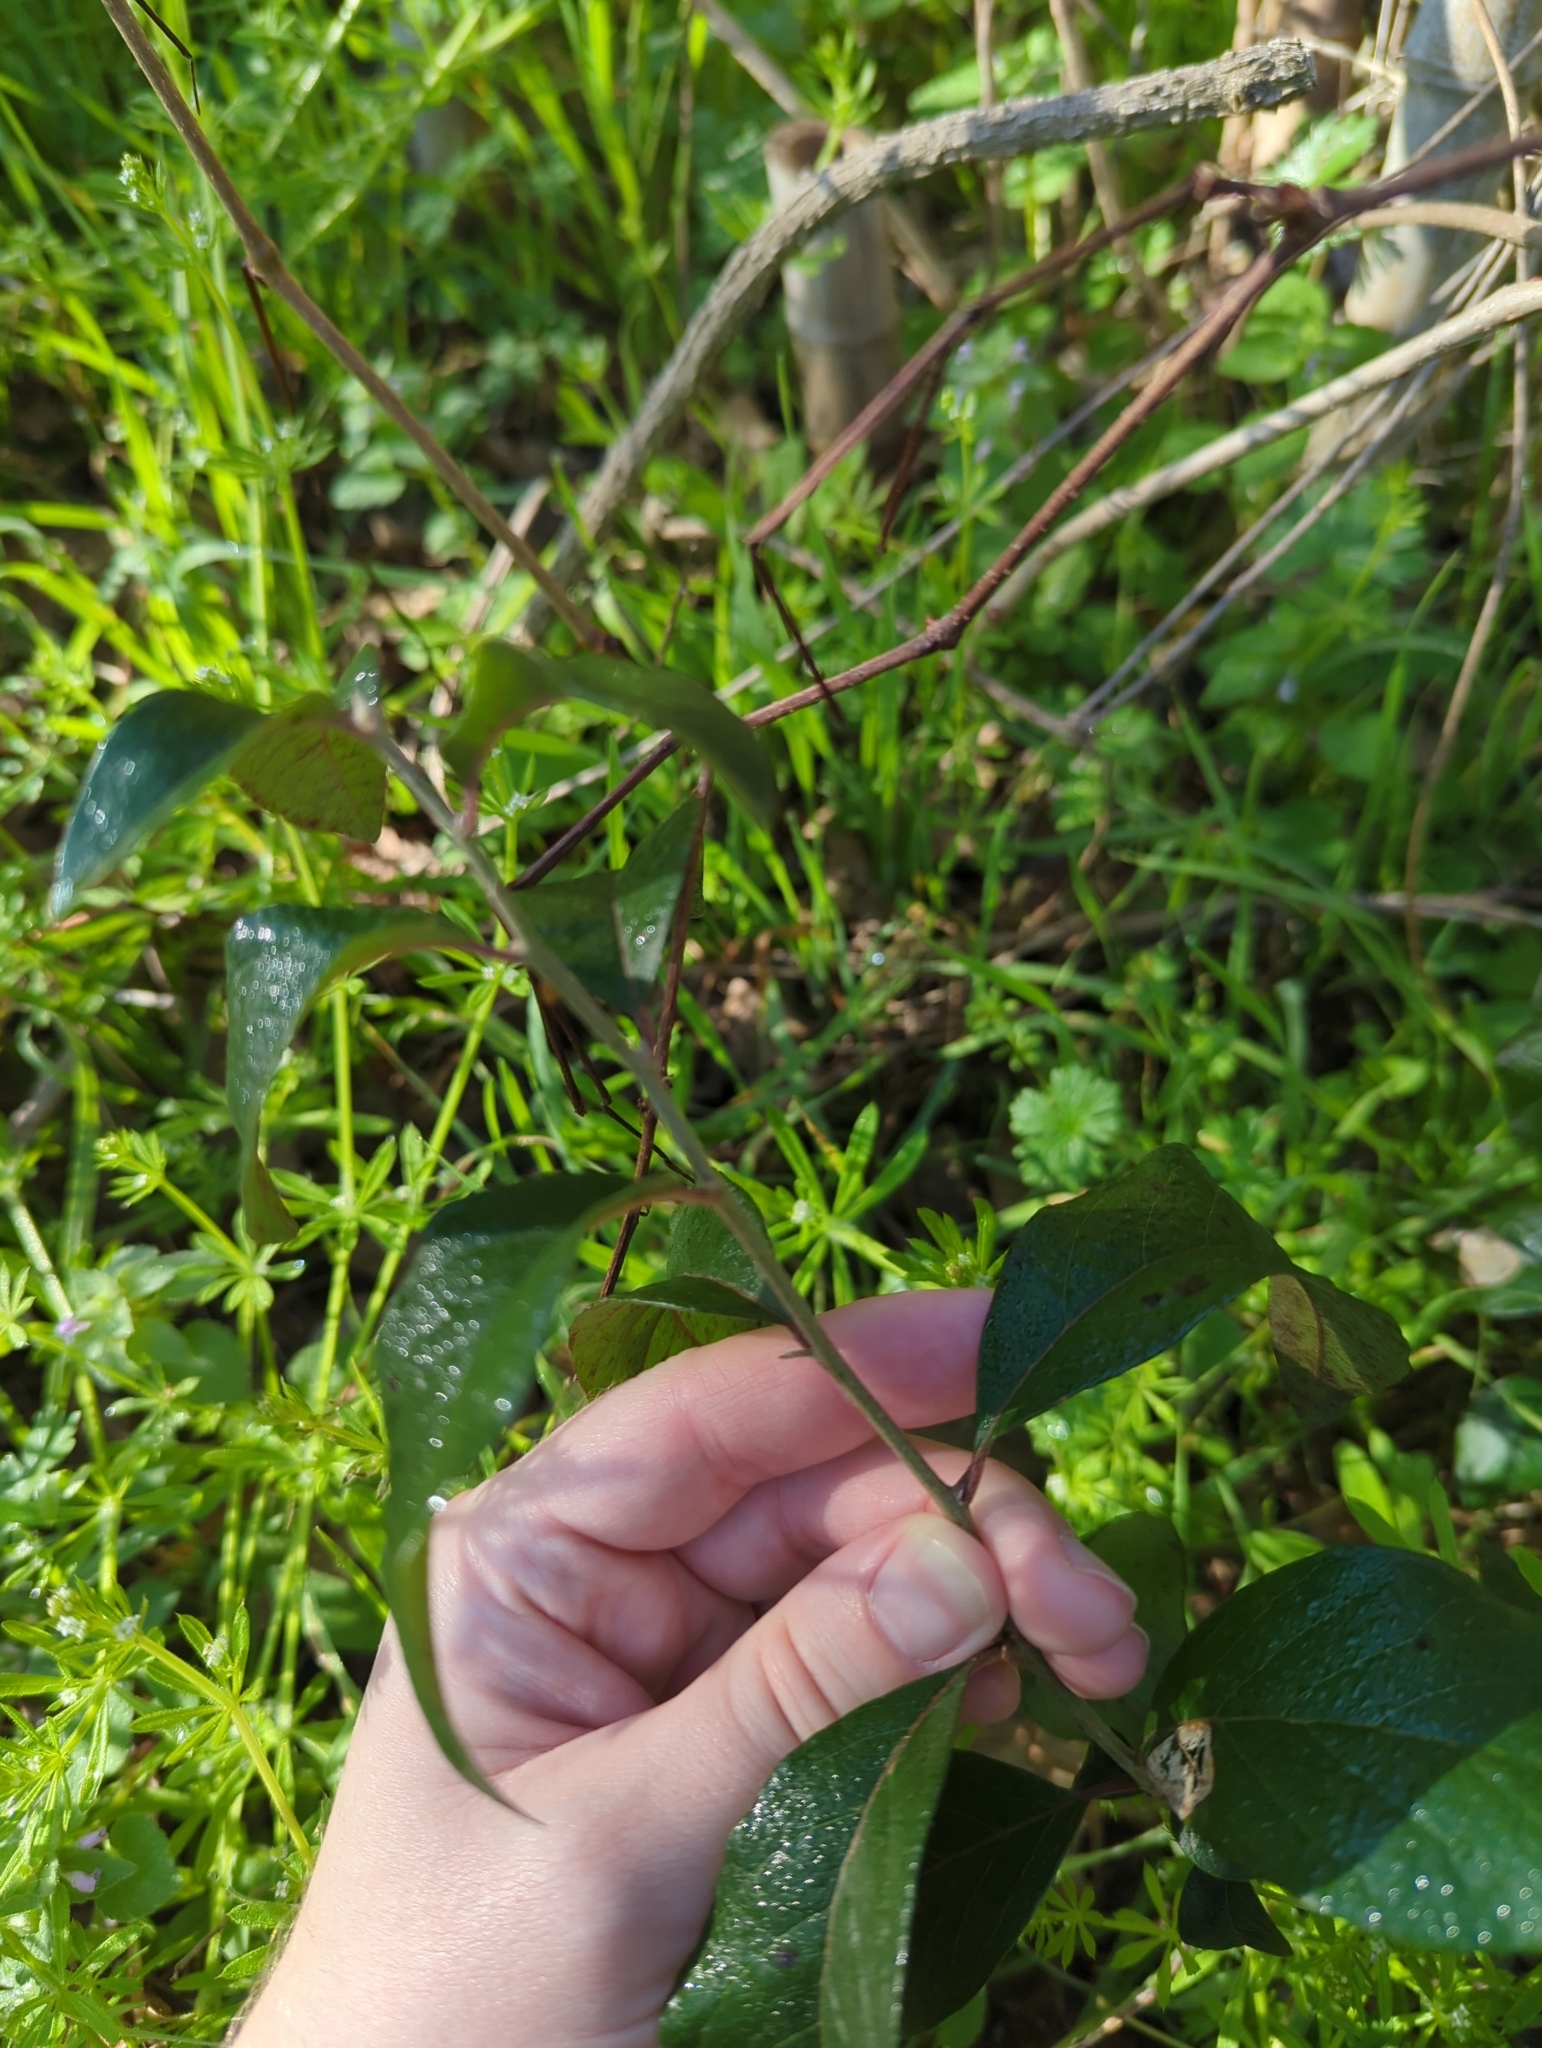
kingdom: Plantae
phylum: Tracheophyta
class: Magnoliopsida
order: Ericales
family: Sapotaceae
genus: Sideroxylon
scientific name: Sideroxylon lanuginosum
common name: Chittamwood
